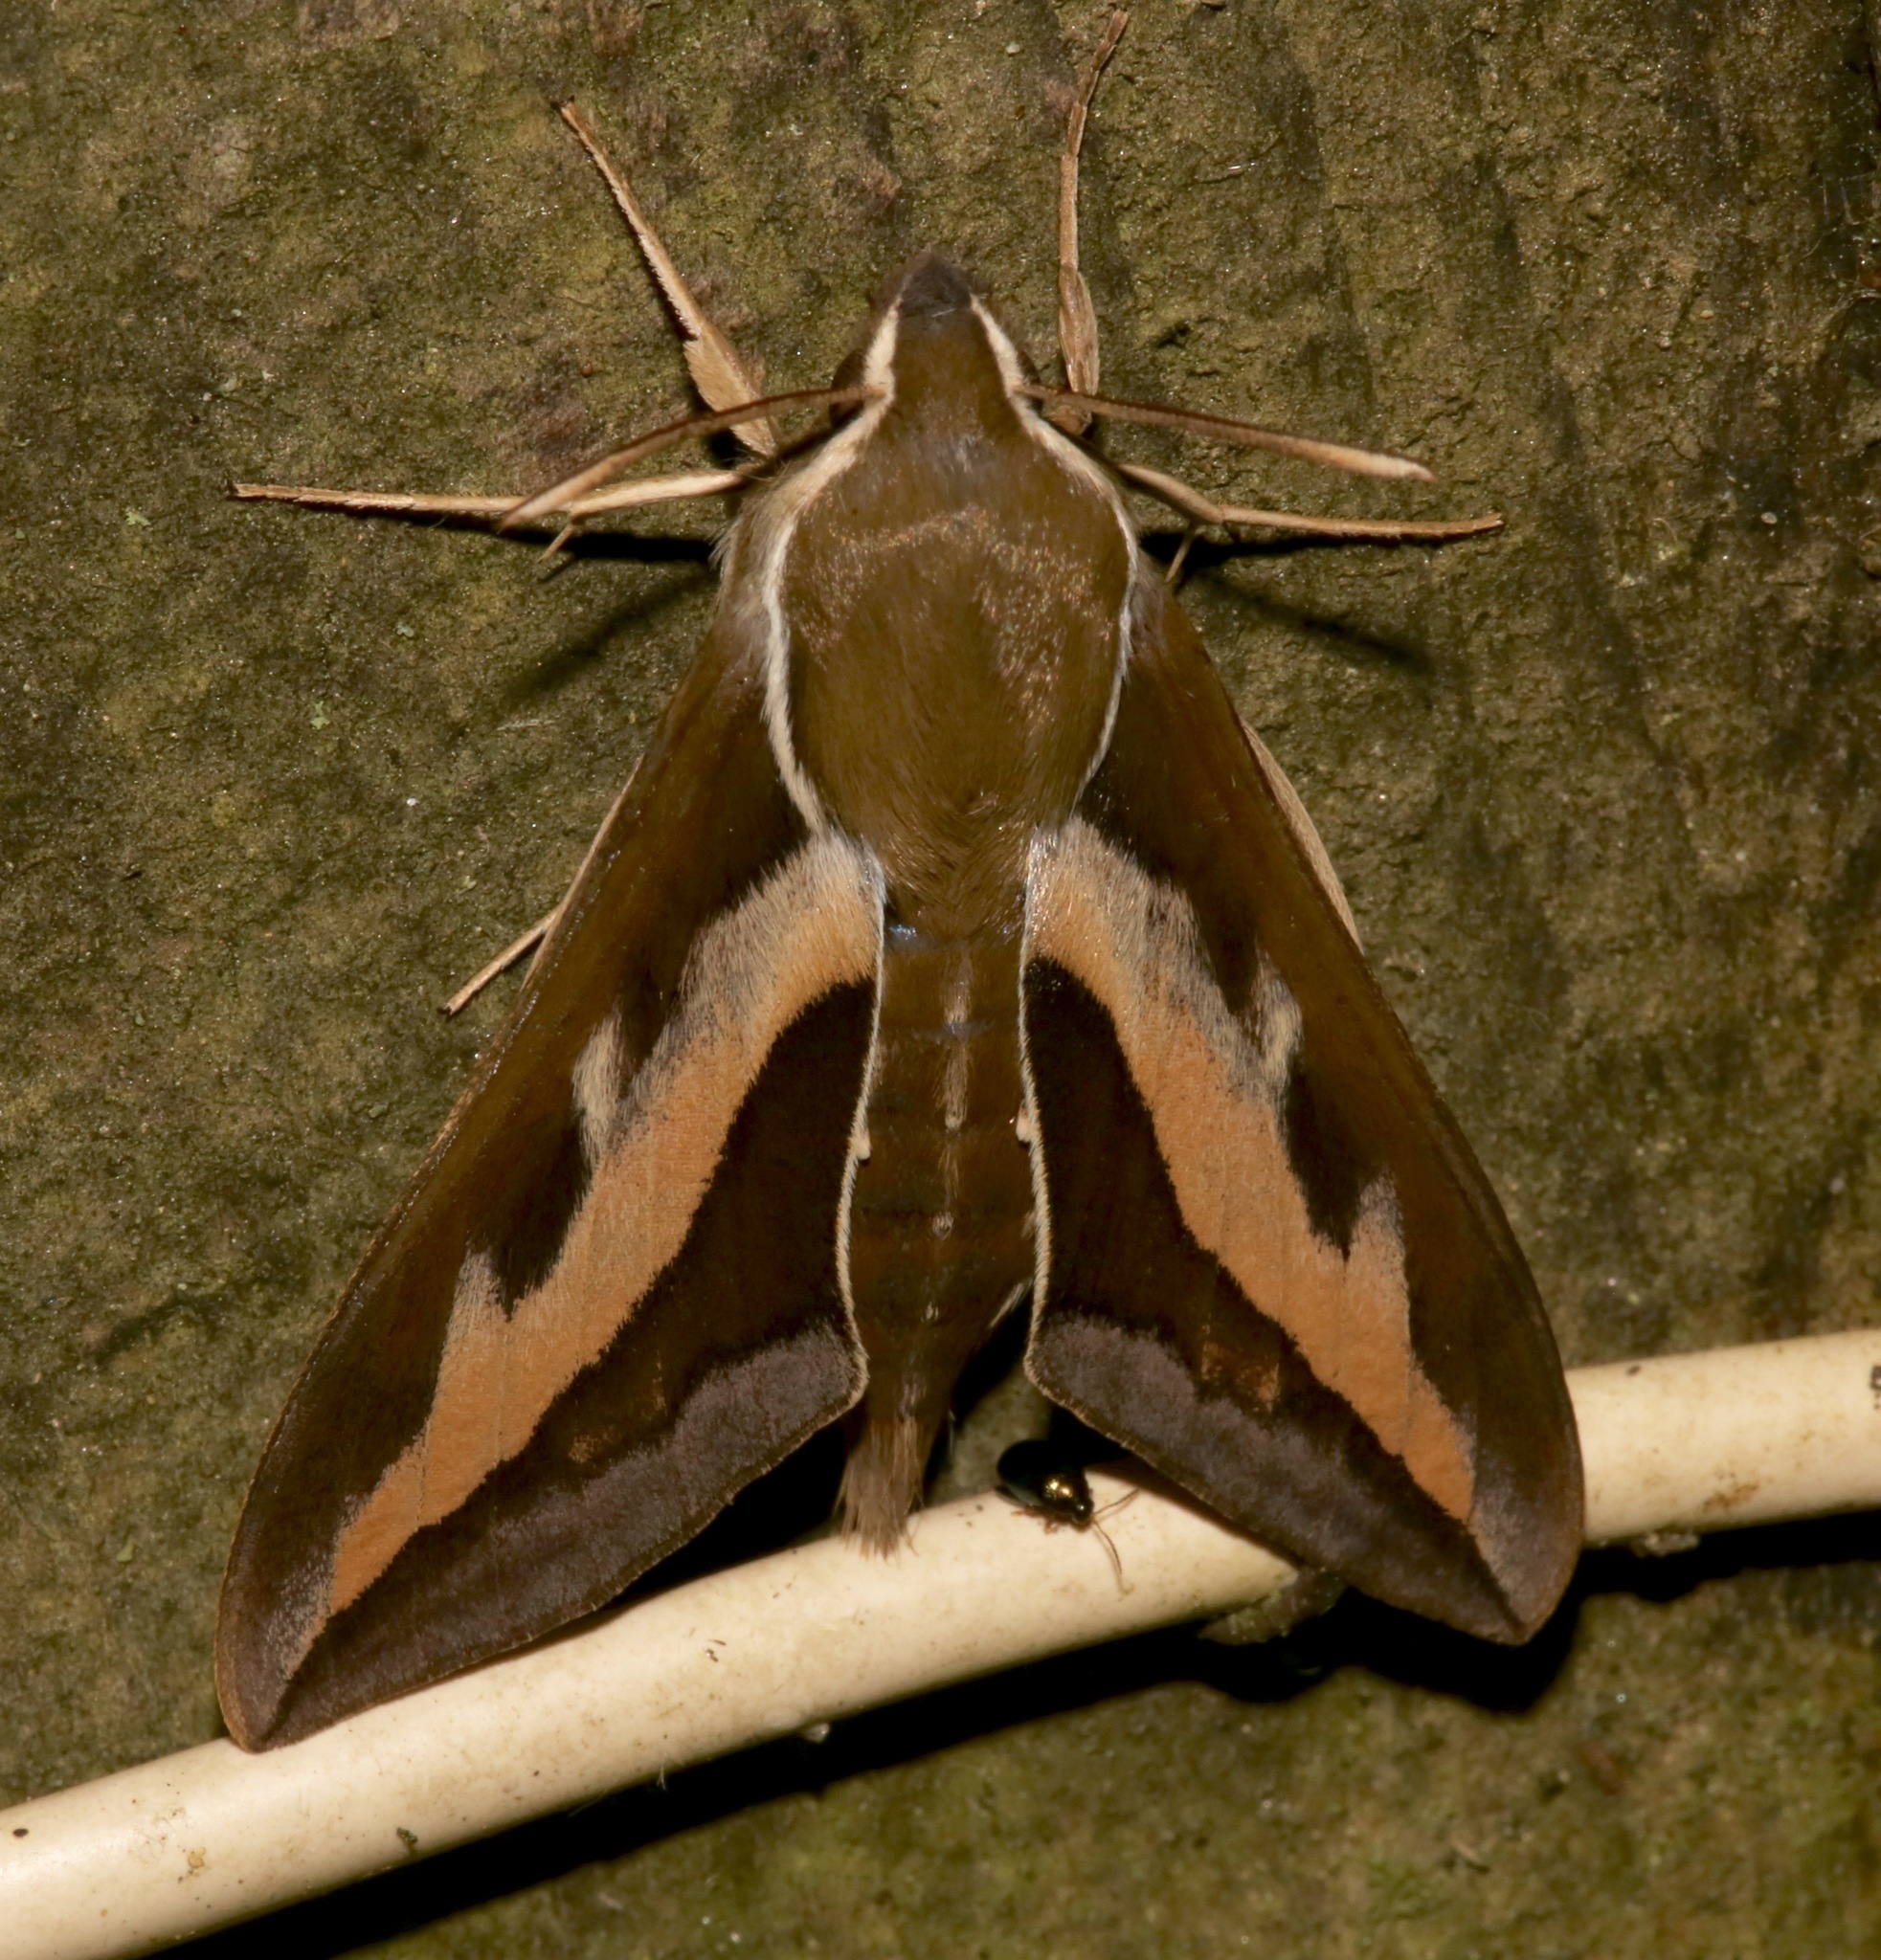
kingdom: Animalia
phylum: Arthropoda
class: Insecta
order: Lepidoptera
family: Sphingidae
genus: Hyles
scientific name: Hyles gallii
